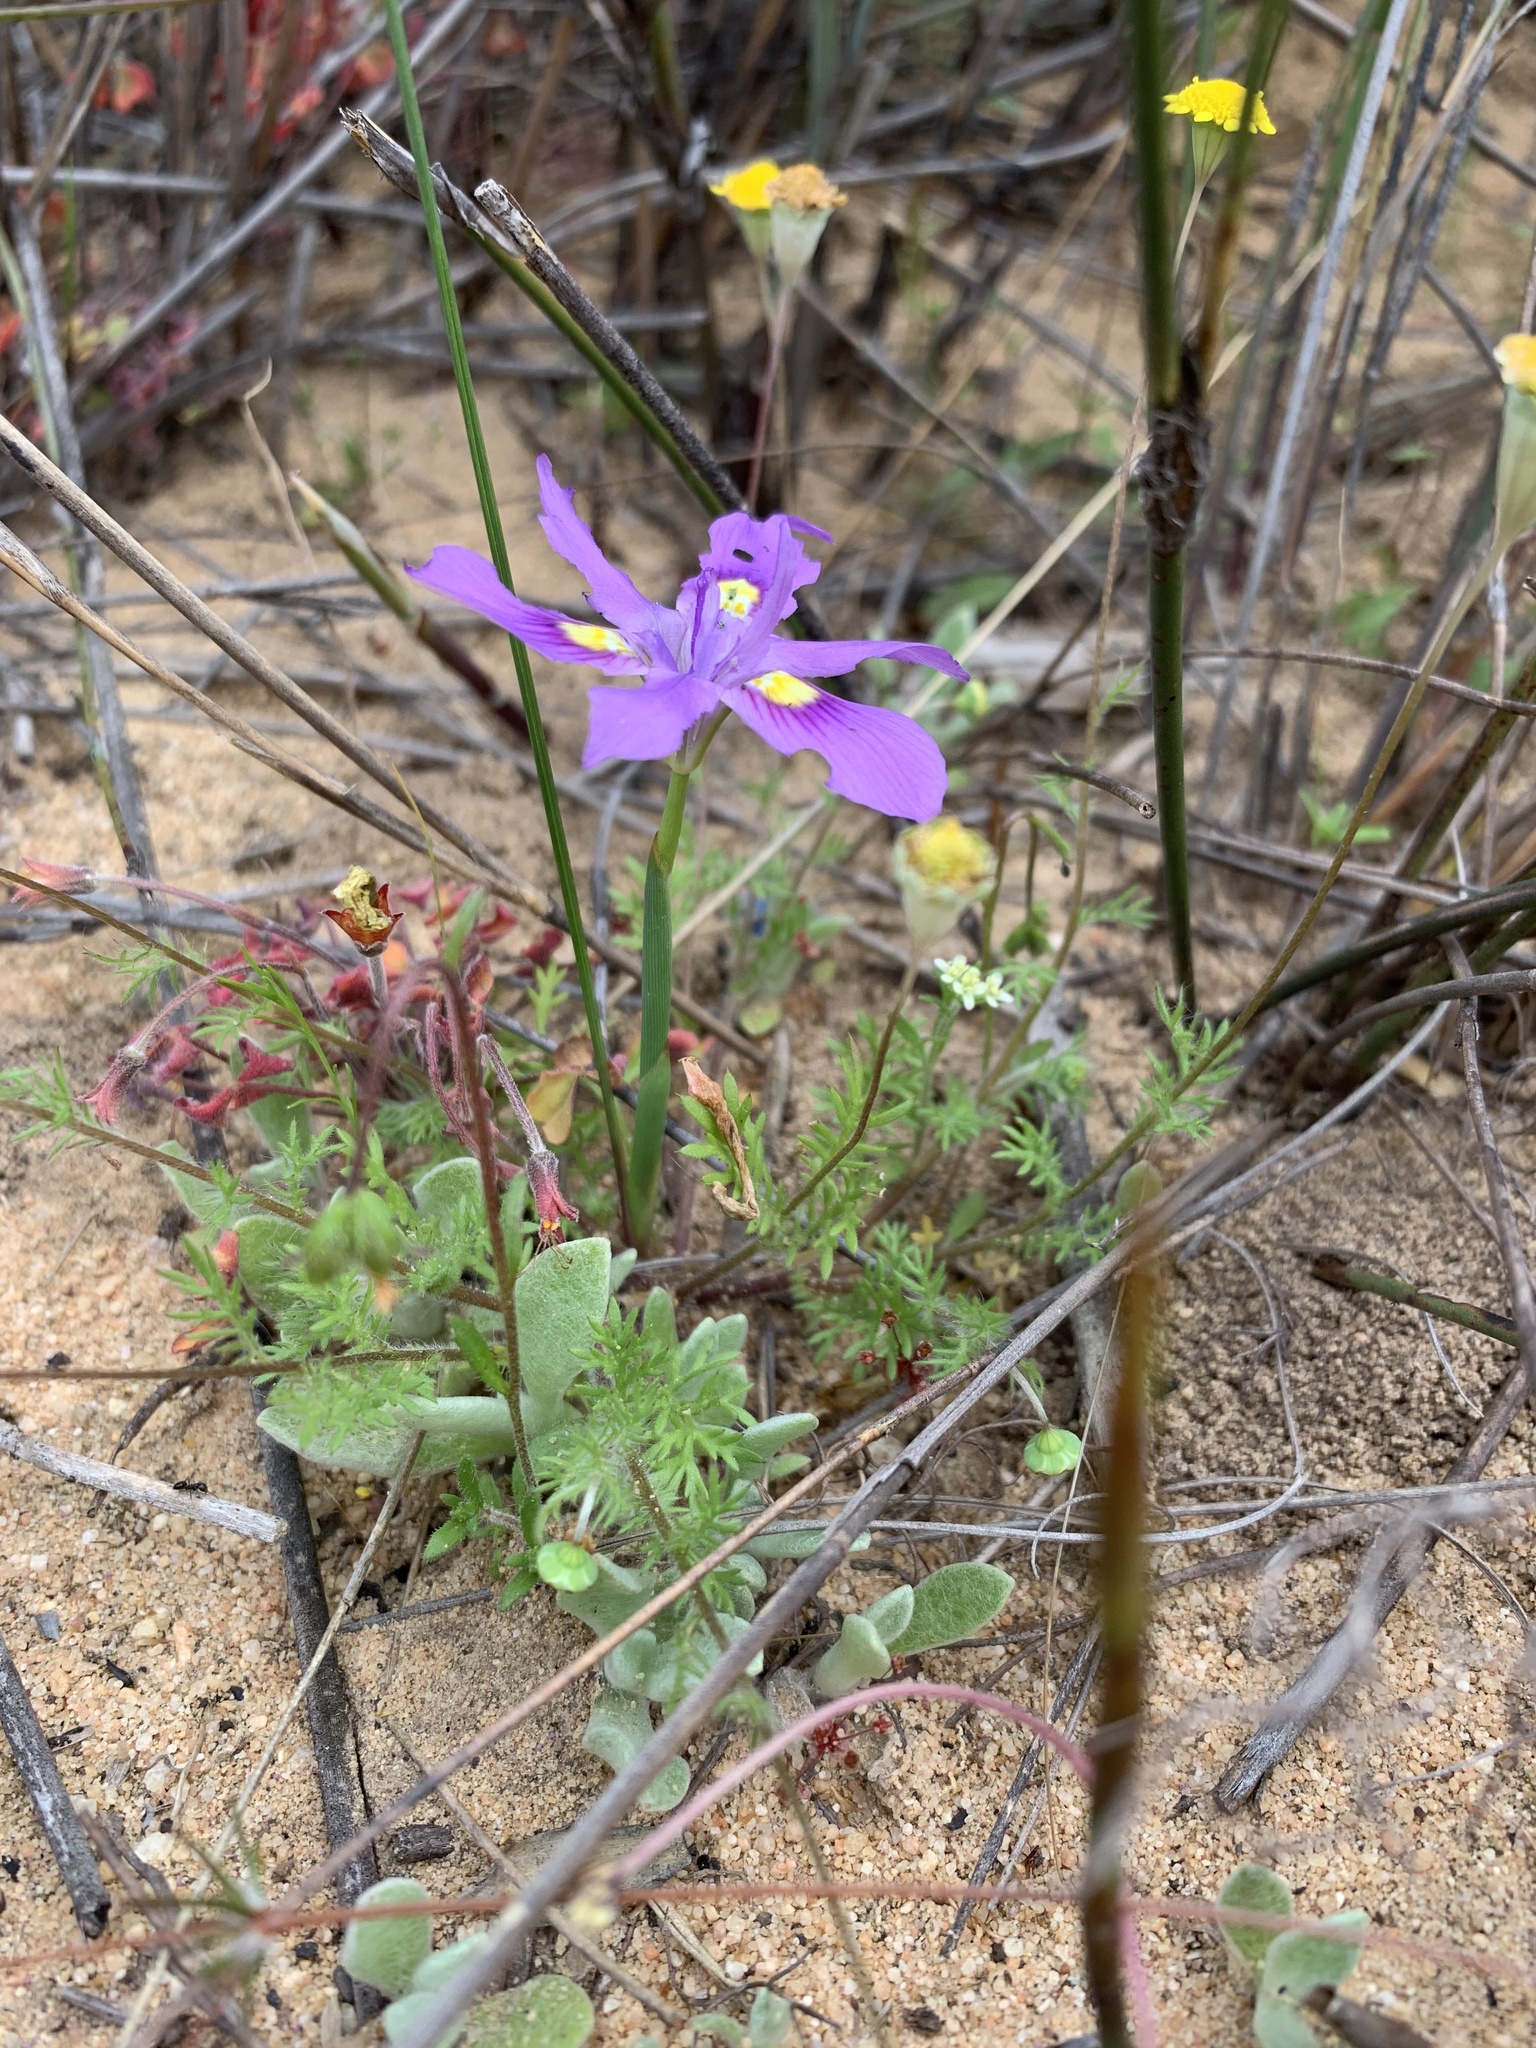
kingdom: Plantae
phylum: Tracheophyta
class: Liliopsida
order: Asparagales
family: Iridaceae
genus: Moraea
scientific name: Moraea macrocarpa
